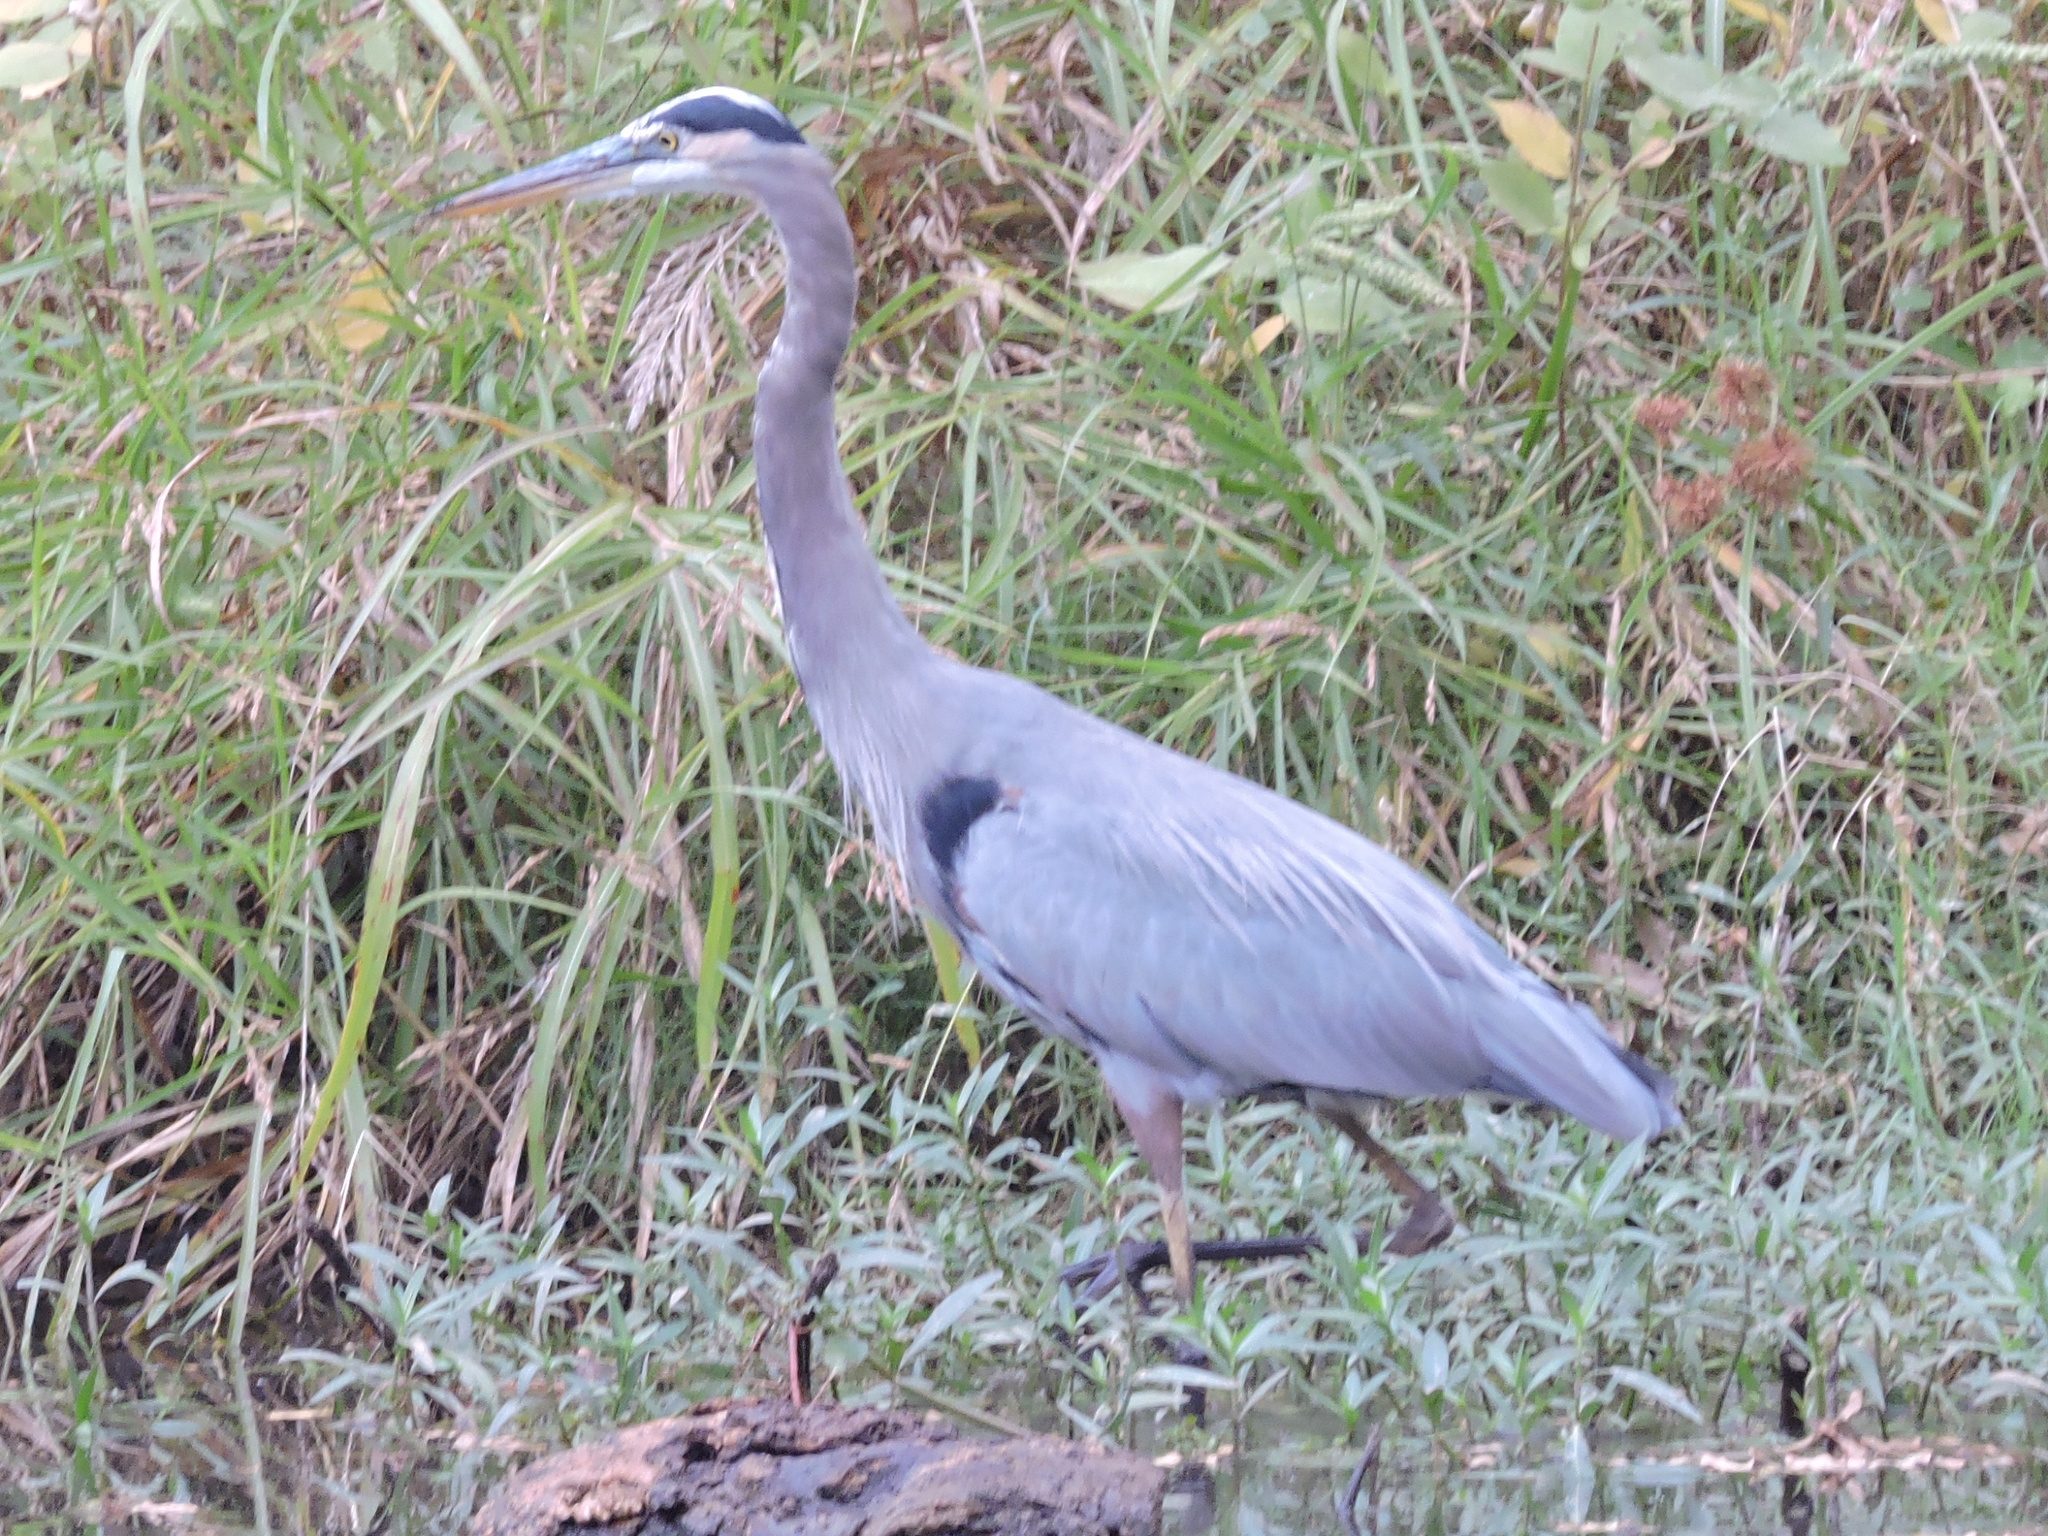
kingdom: Animalia
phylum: Chordata
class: Aves
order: Pelecaniformes
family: Ardeidae
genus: Ardea
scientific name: Ardea herodias
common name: Great blue heron
